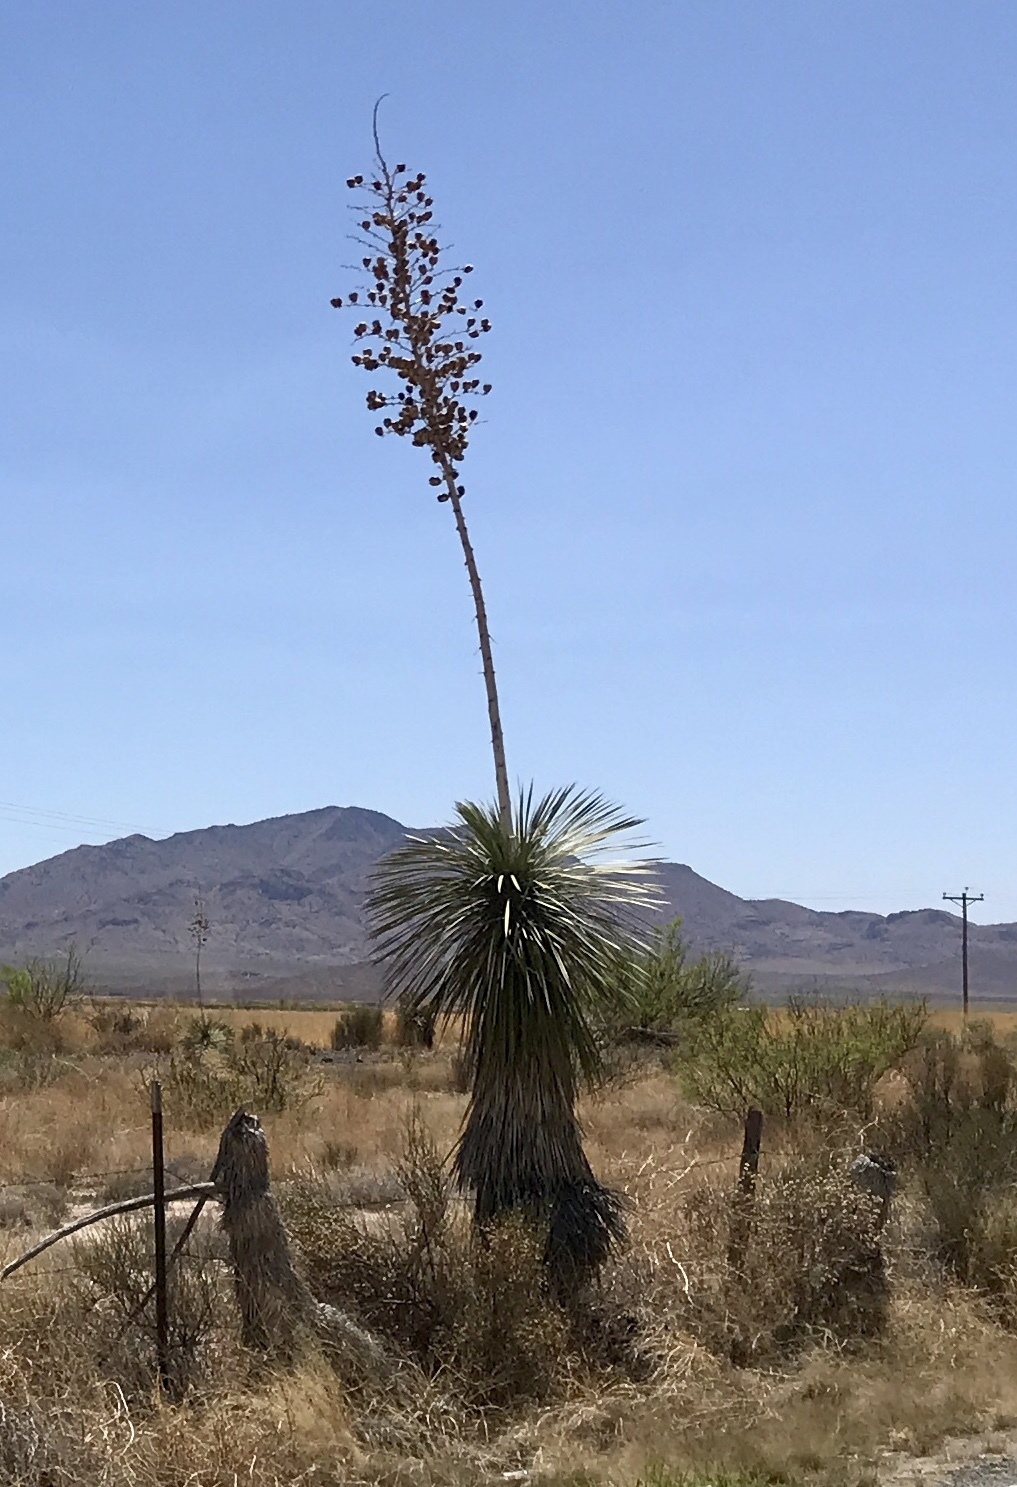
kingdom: Plantae
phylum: Tracheophyta
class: Liliopsida
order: Asparagales
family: Asparagaceae
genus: Yucca
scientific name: Yucca elata
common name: Palmella
